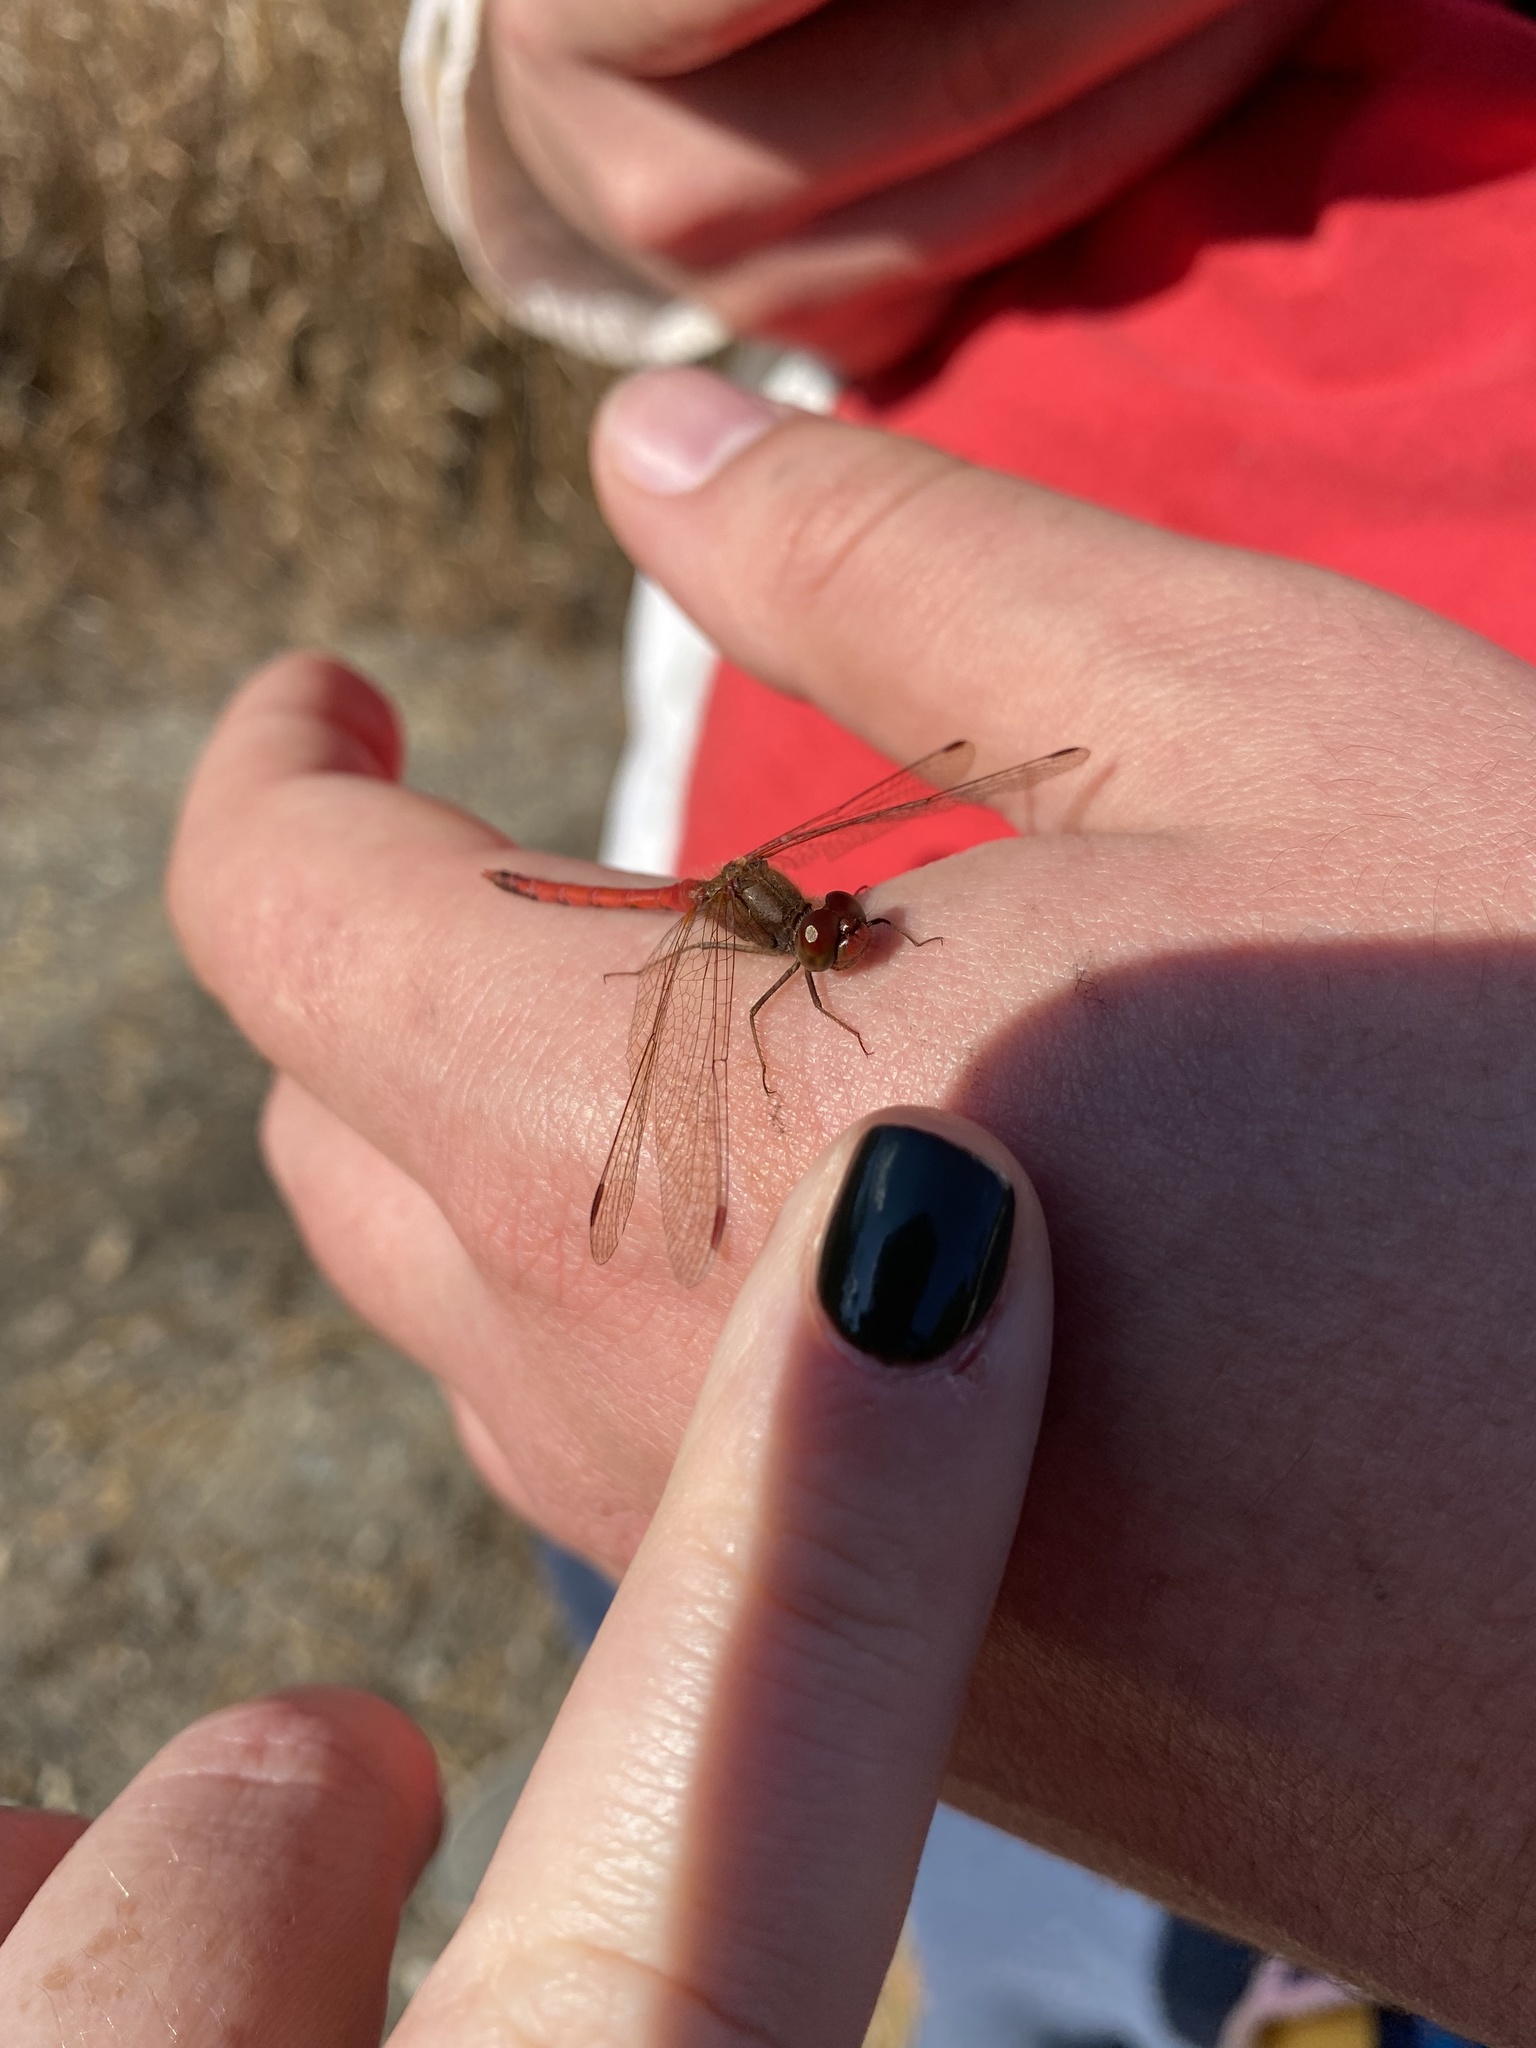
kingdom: Animalia
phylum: Arthropoda
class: Insecta
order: Odonata
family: Libellulidae
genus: Sympetrum
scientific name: Sympetrum vicinum
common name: Autumn meadowhawk
